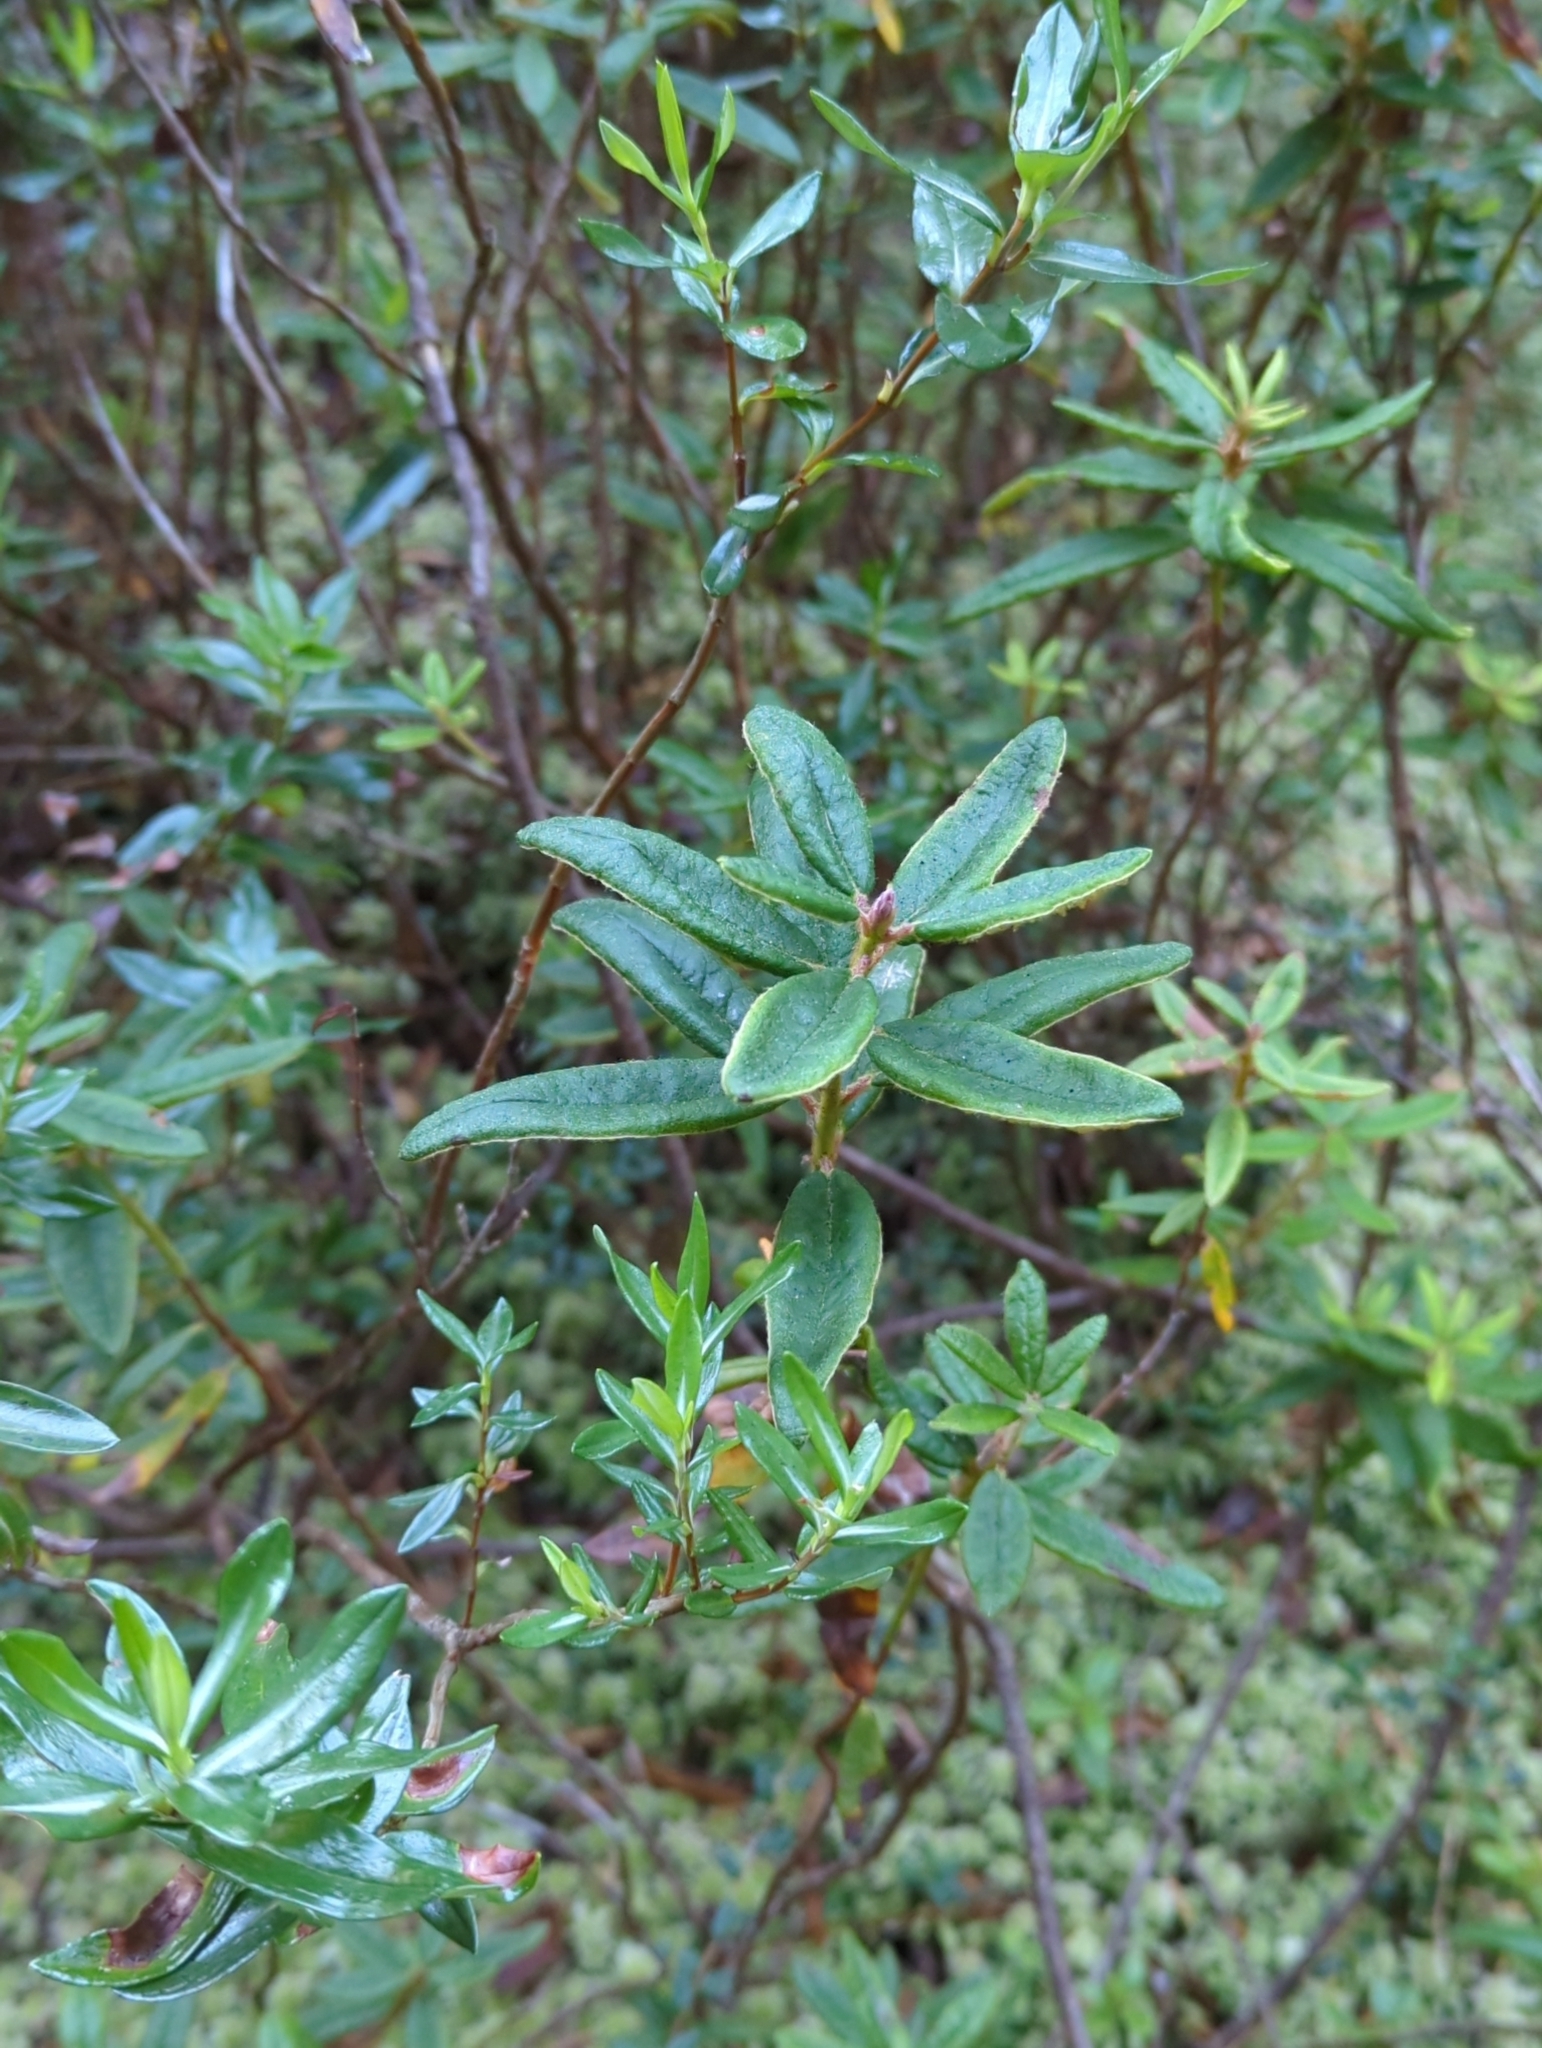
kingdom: Plantae
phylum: Tracheophyta
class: Magnoliopsida
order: Ericales
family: Ericaceae
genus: Rhododendron
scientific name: Rhododendron groenlandicum
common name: Bog labrador tea
